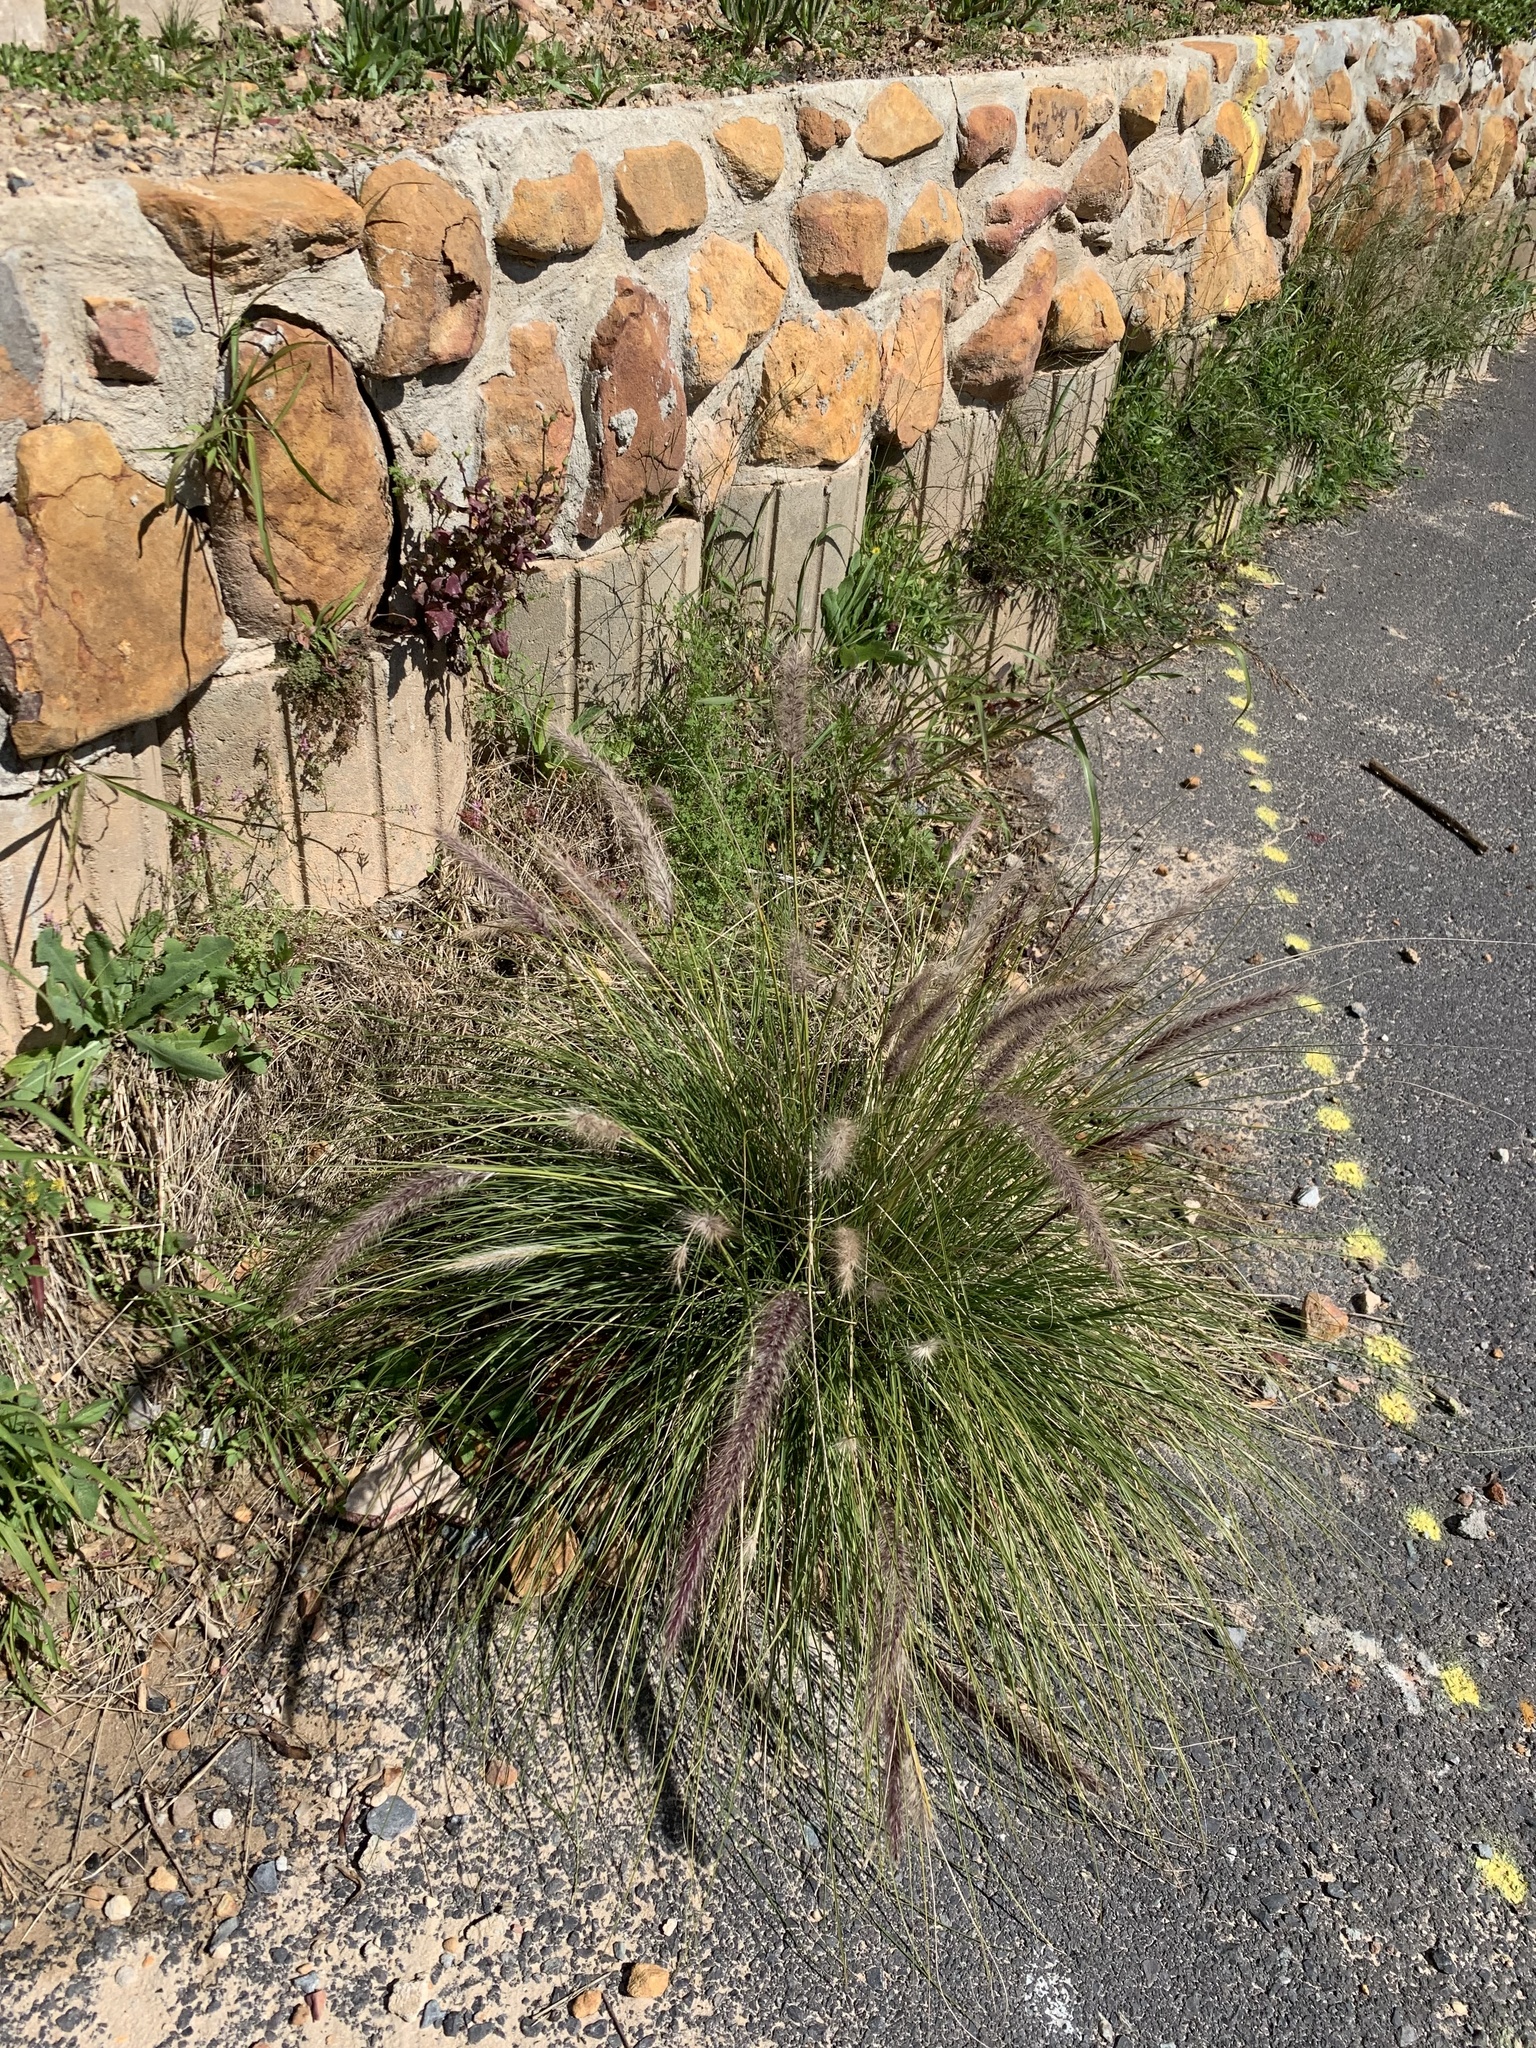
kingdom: Plantae
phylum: Tracheophyta
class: Liliopsida
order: Poales
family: Poaceae
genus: Cenchrus
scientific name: Cenchrus setaceus
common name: Crimson fountaingrass
